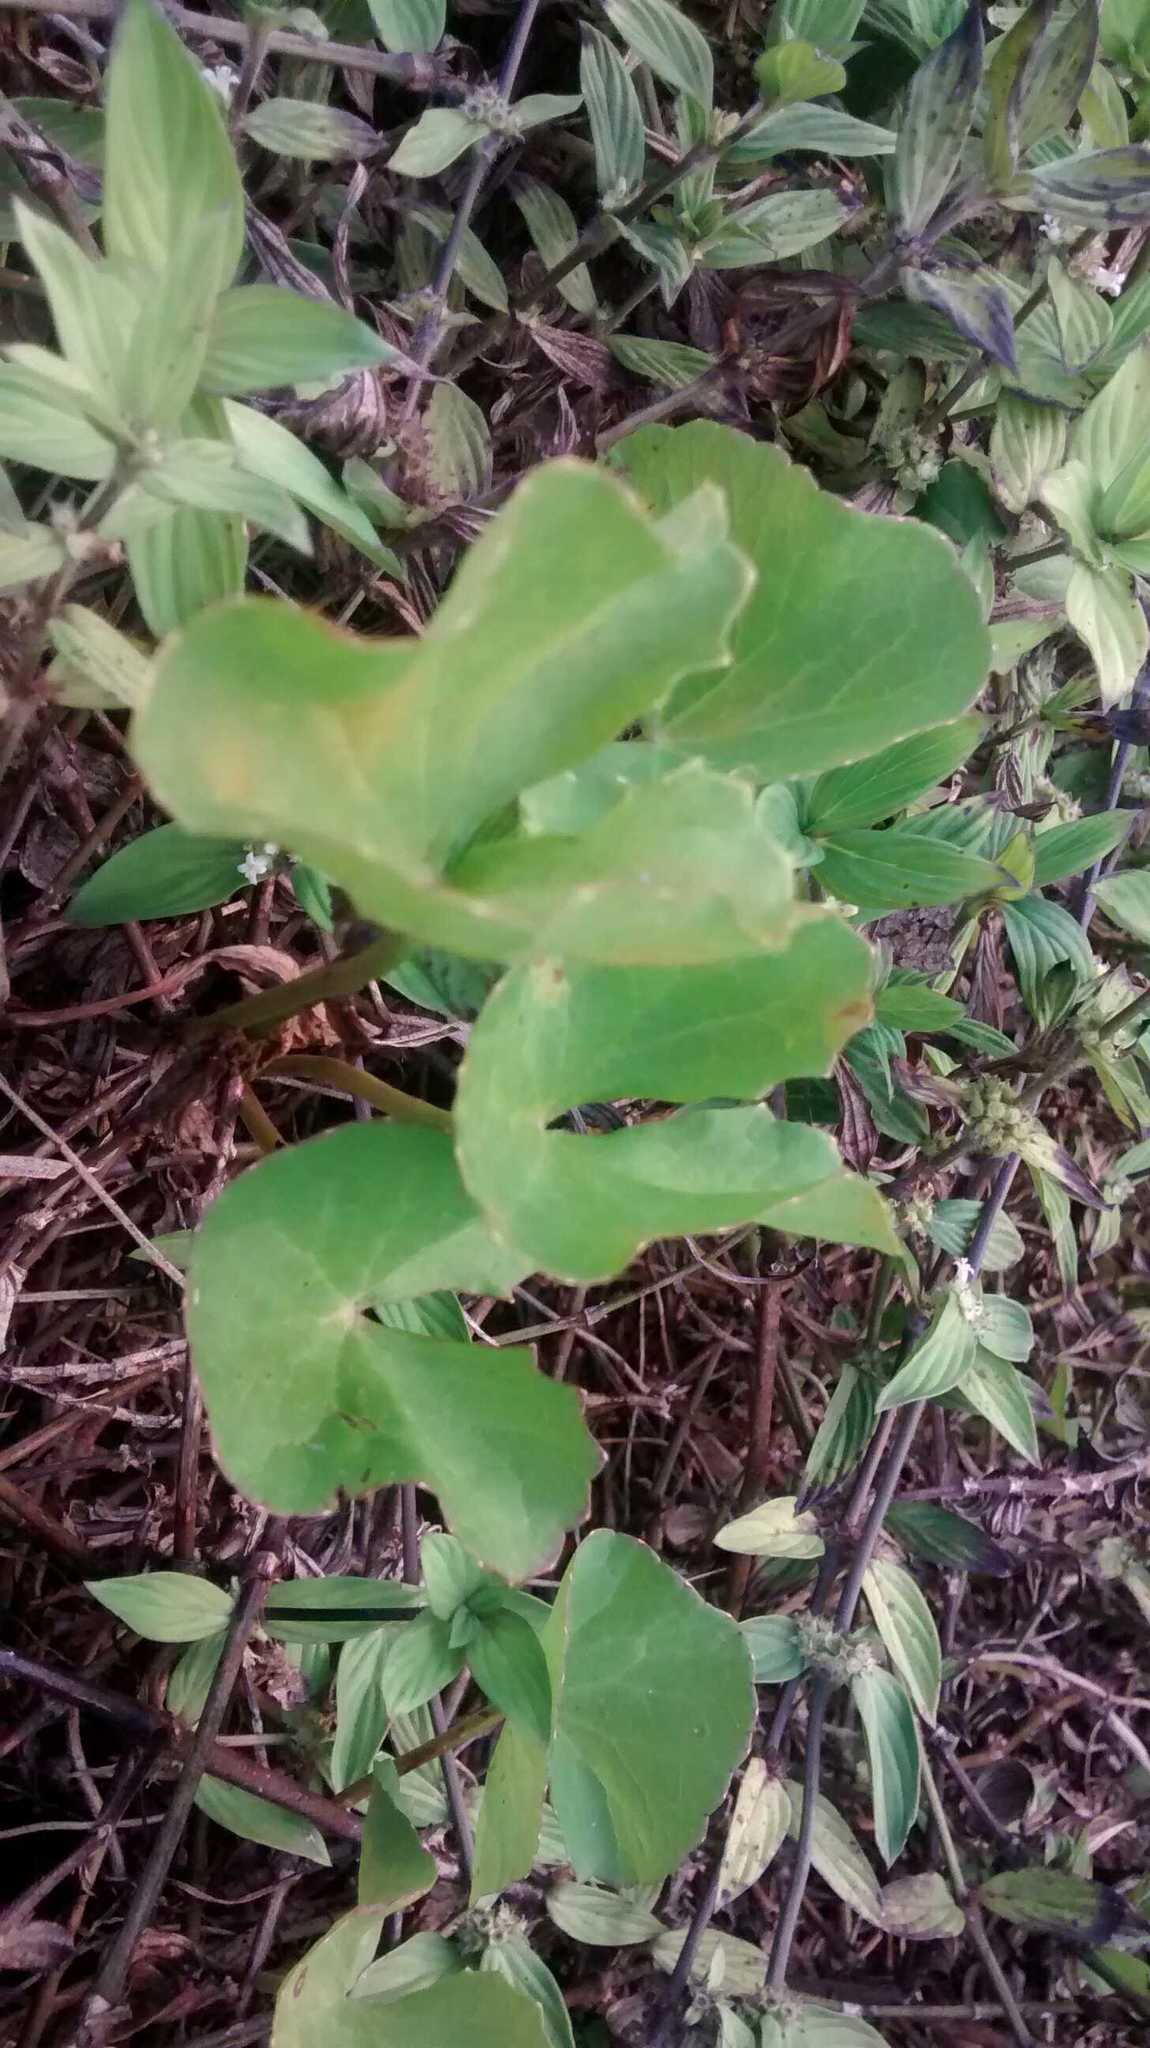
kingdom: Plantae
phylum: Tracheophyta
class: Magnoliopsida
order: Apiales
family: Apiaceae
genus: Centella
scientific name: Centella asiatica
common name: Spadeleaf
